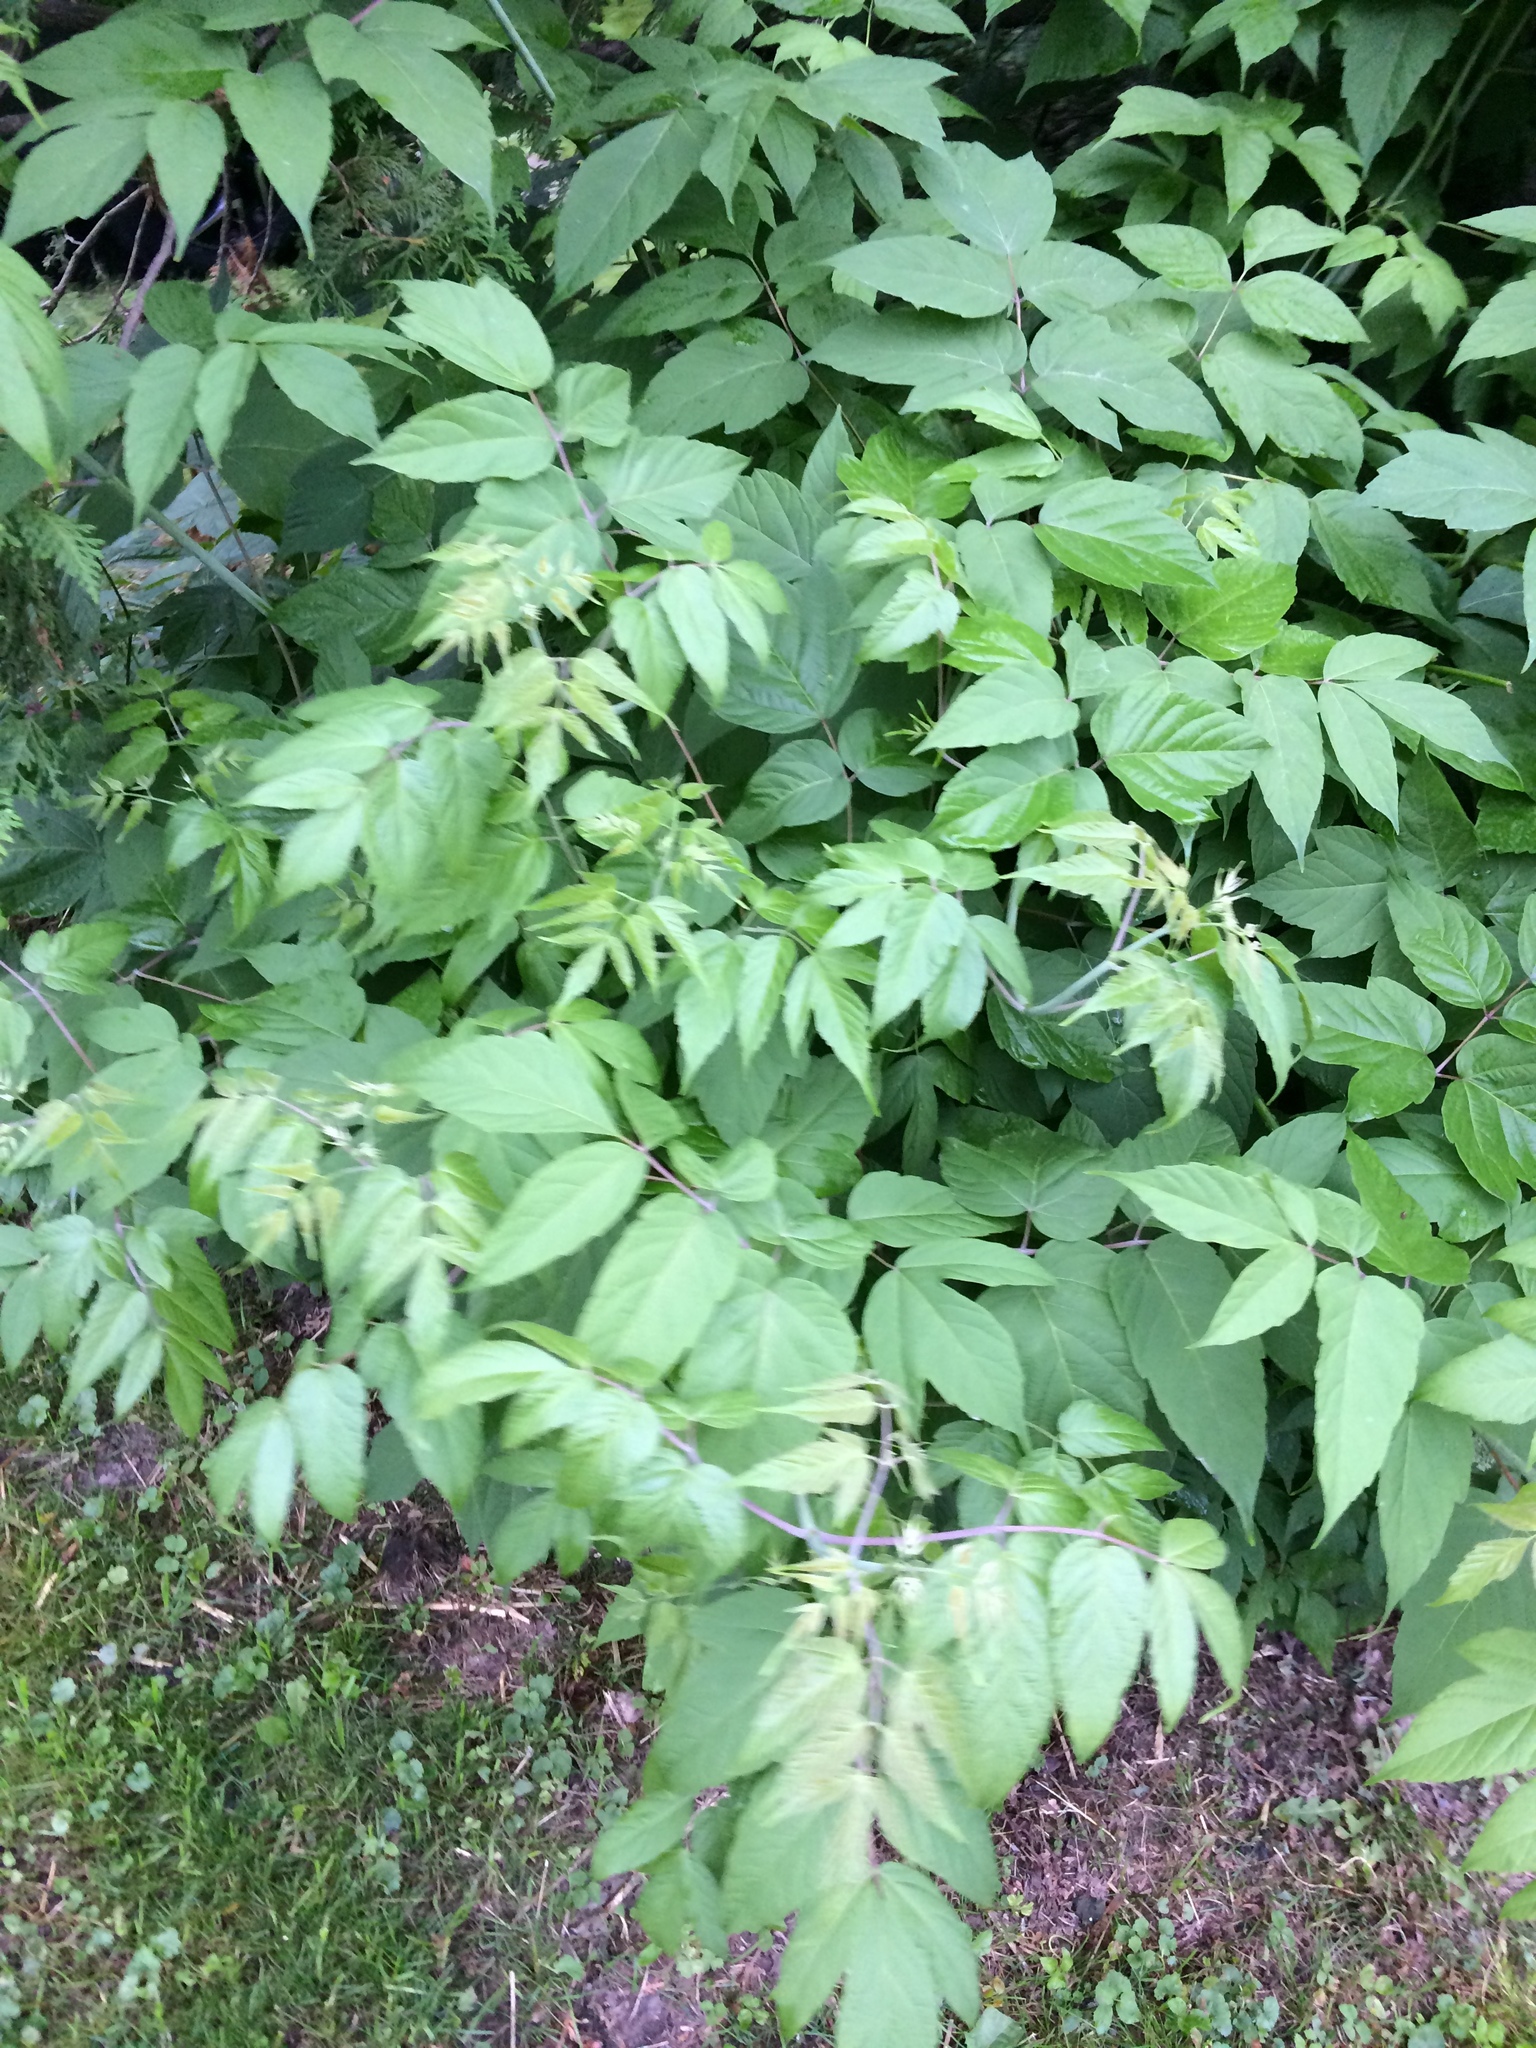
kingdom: Plantae
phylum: Tracheophyta
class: Magnoliopsida
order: Sapindales
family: Sapindaceae
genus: Acer
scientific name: Acer negundo
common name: Ashleaf maple
